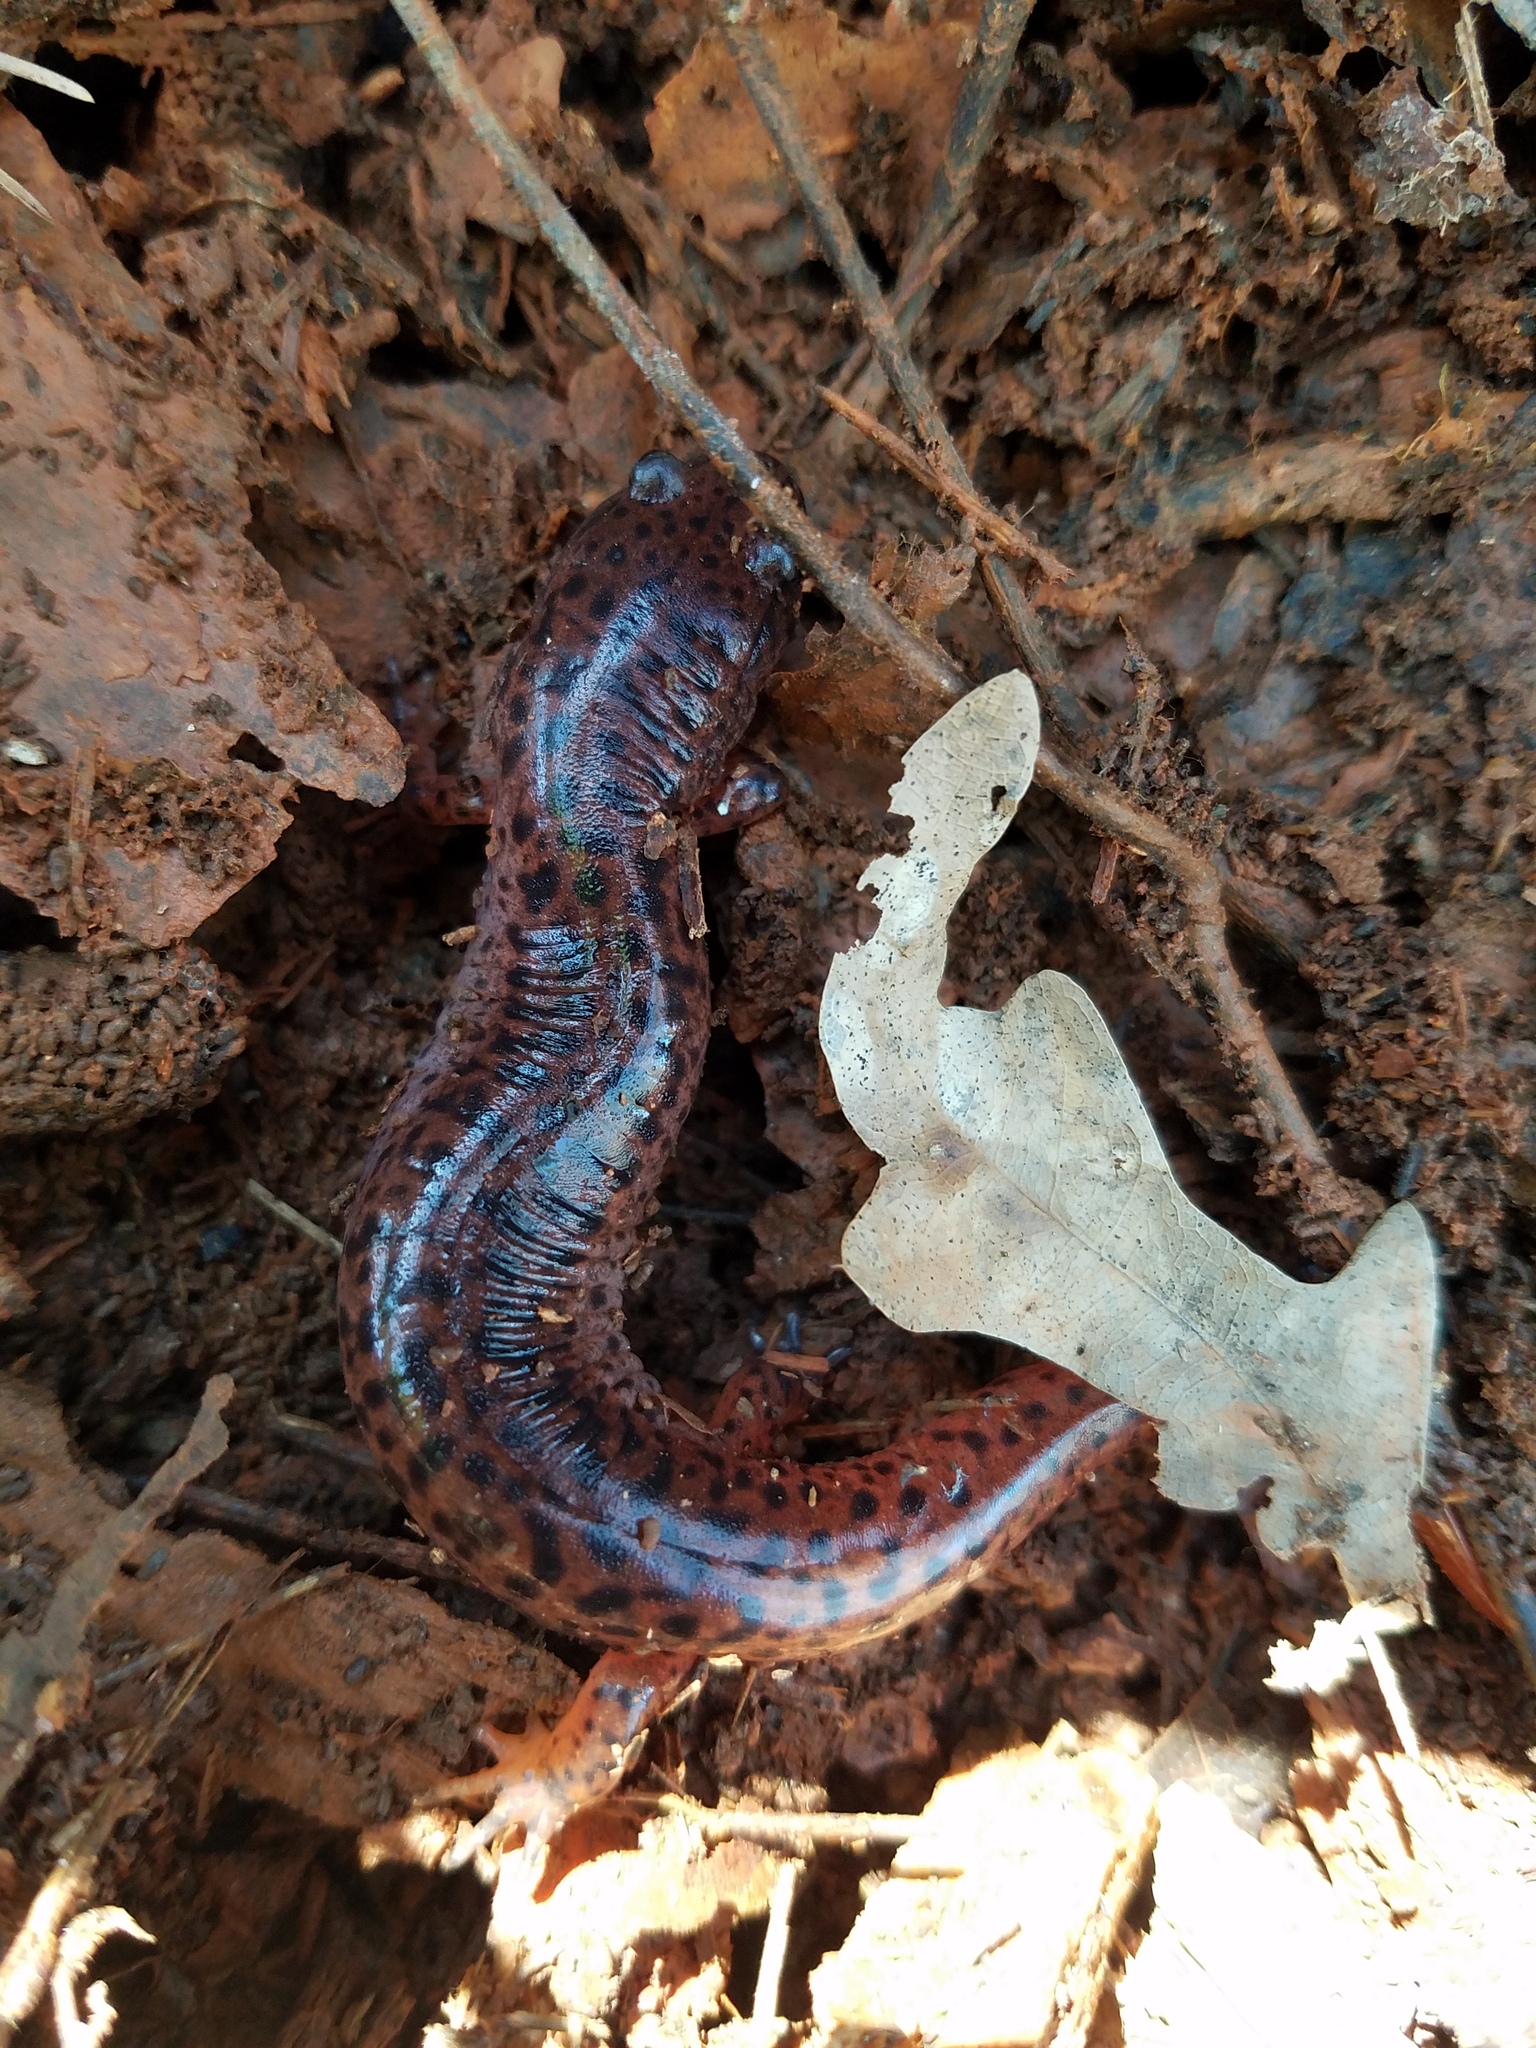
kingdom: Animalia
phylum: Chordata
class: Amphibia
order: Caudata
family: Plethodontidae
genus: Pseudotriton
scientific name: Pseudotriton ruber
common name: Red salamander
